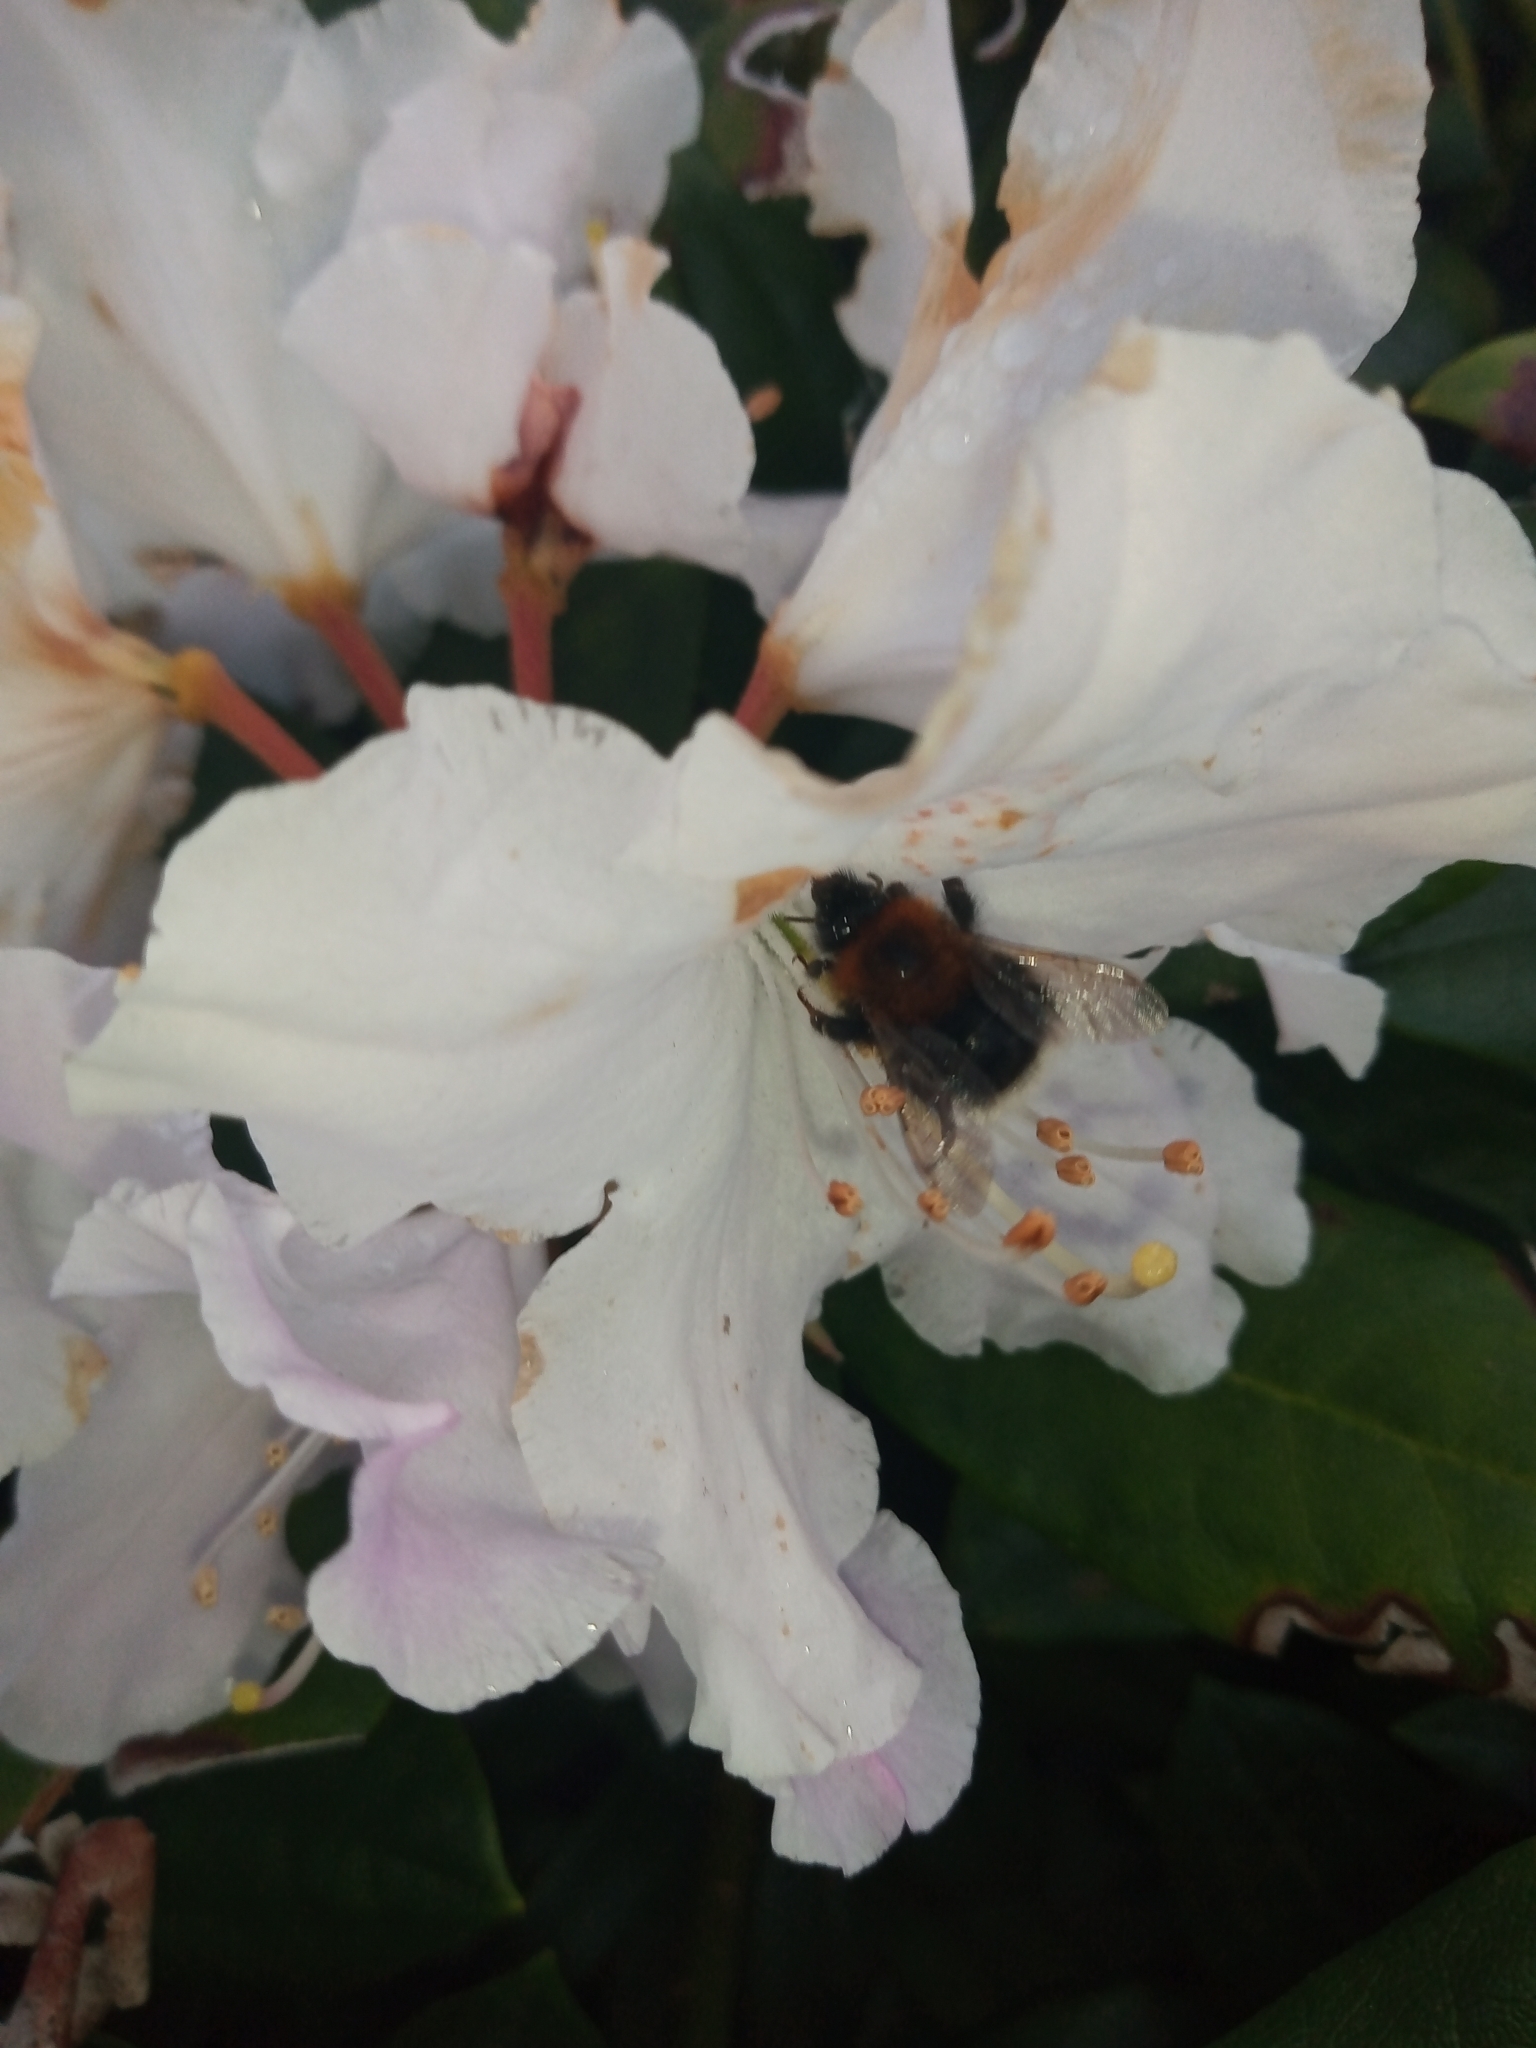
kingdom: Animalia
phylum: Arthropoda
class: Insecta
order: Hymenoptera
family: Apidae
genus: Bombus
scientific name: Bombus hypnorum
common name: New garden bumblebee
